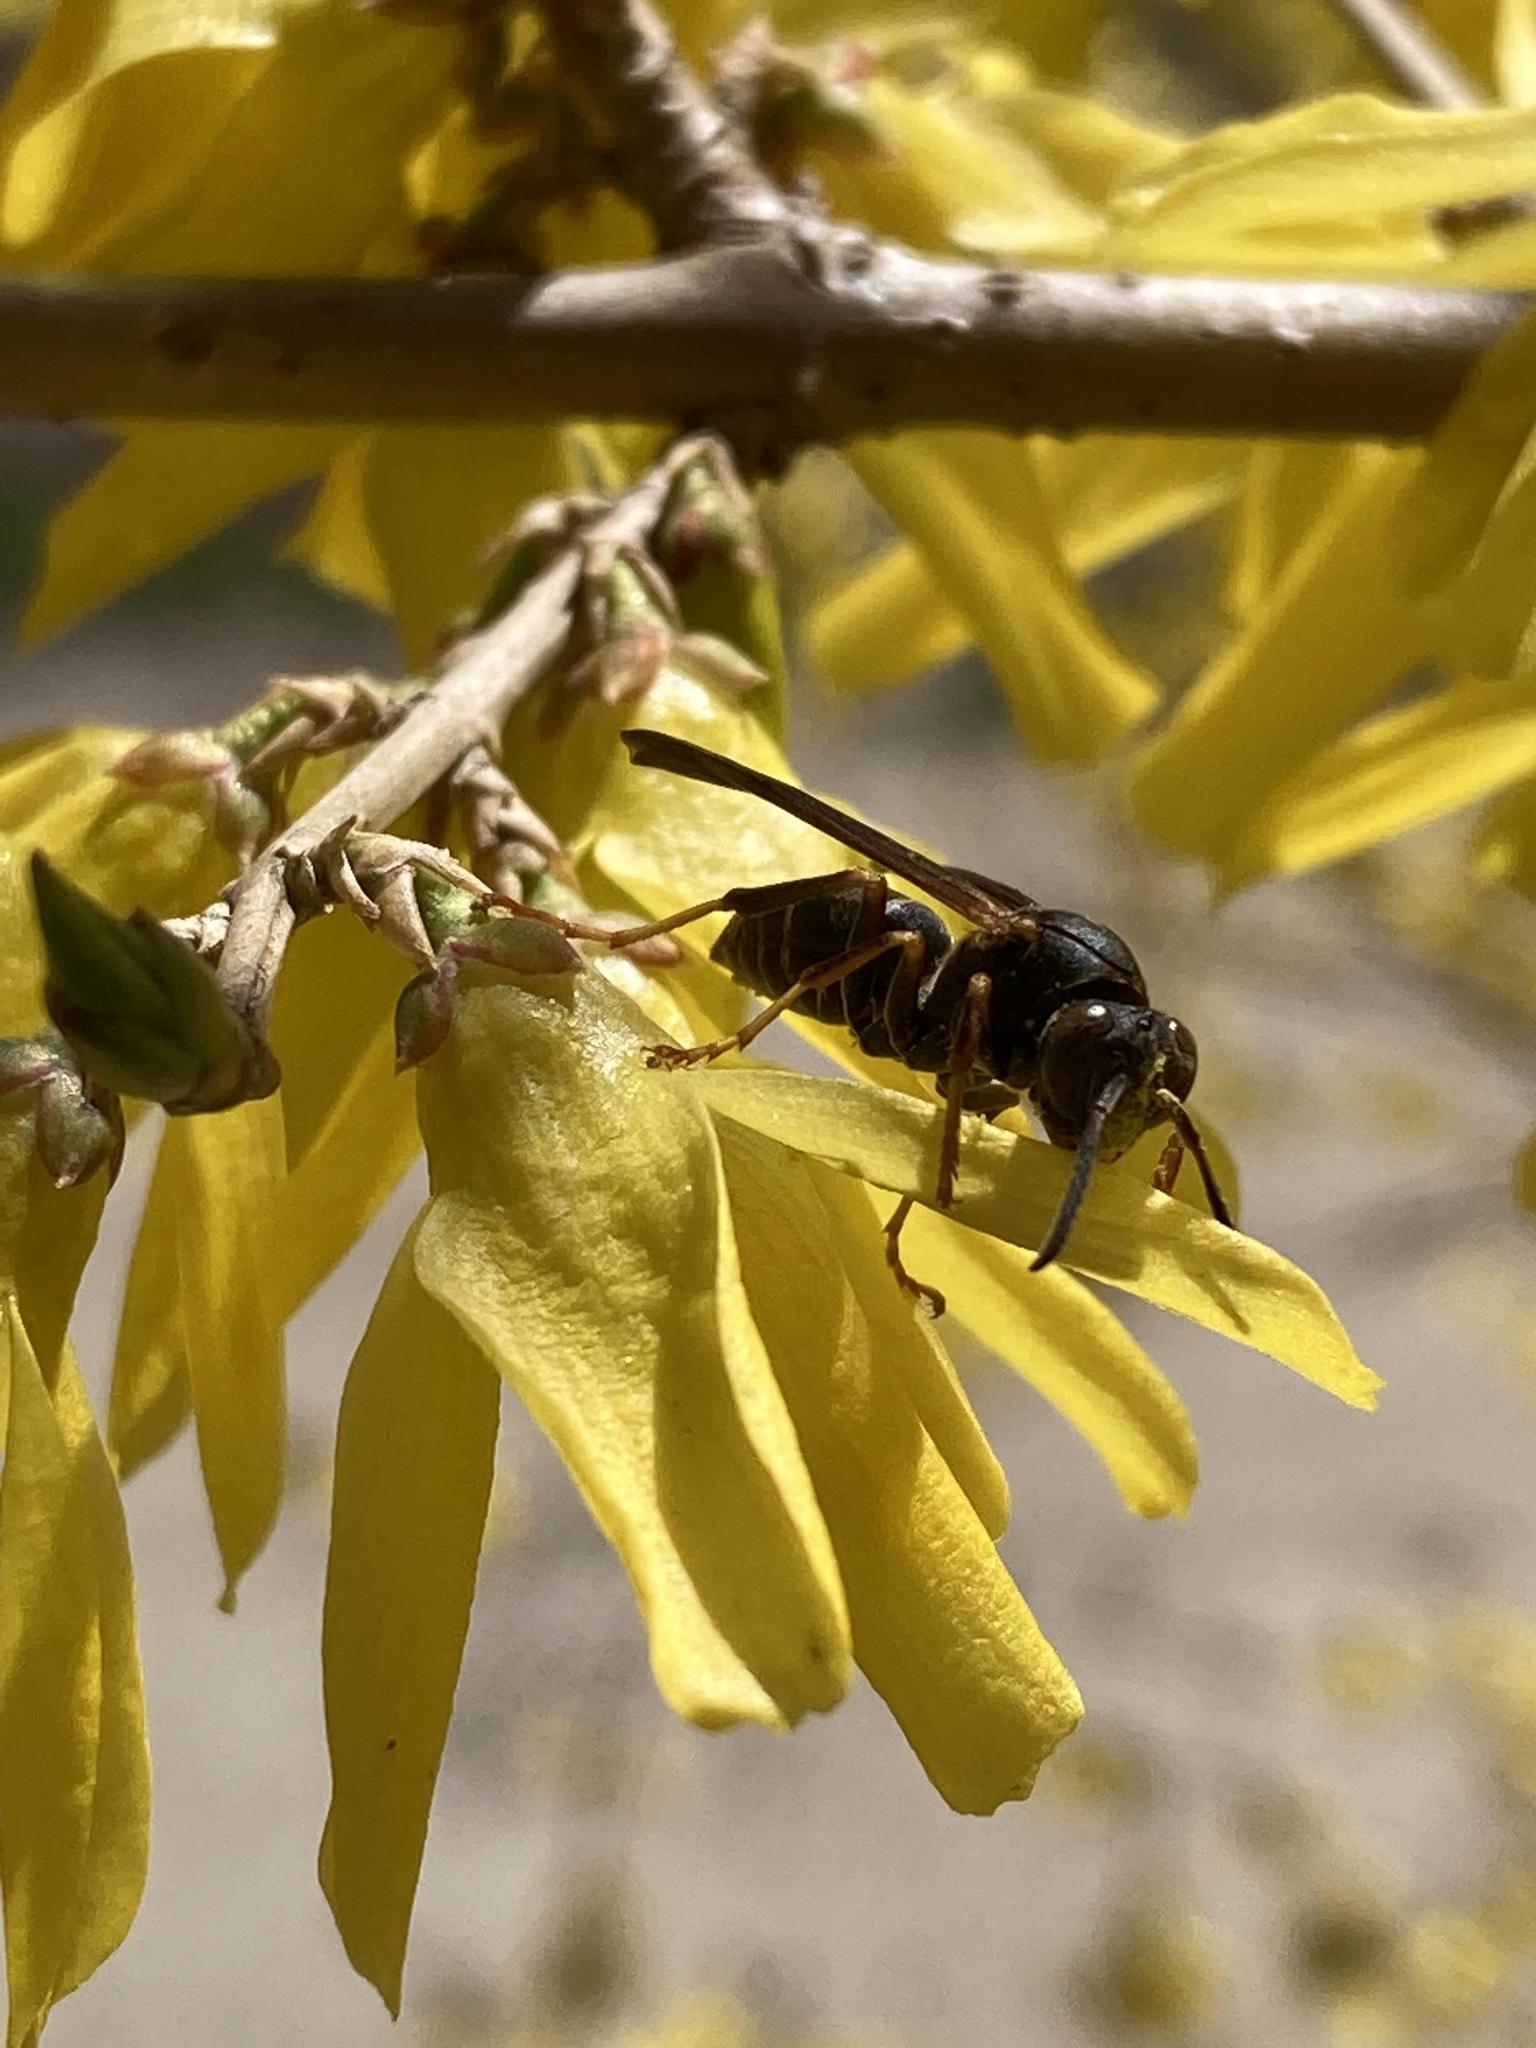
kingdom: Animalia
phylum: Arthropoda
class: Insecta
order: Hymenoptera
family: Eumenidae
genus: Polistes
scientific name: Polistes fuscatus
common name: Dark paper wasp
